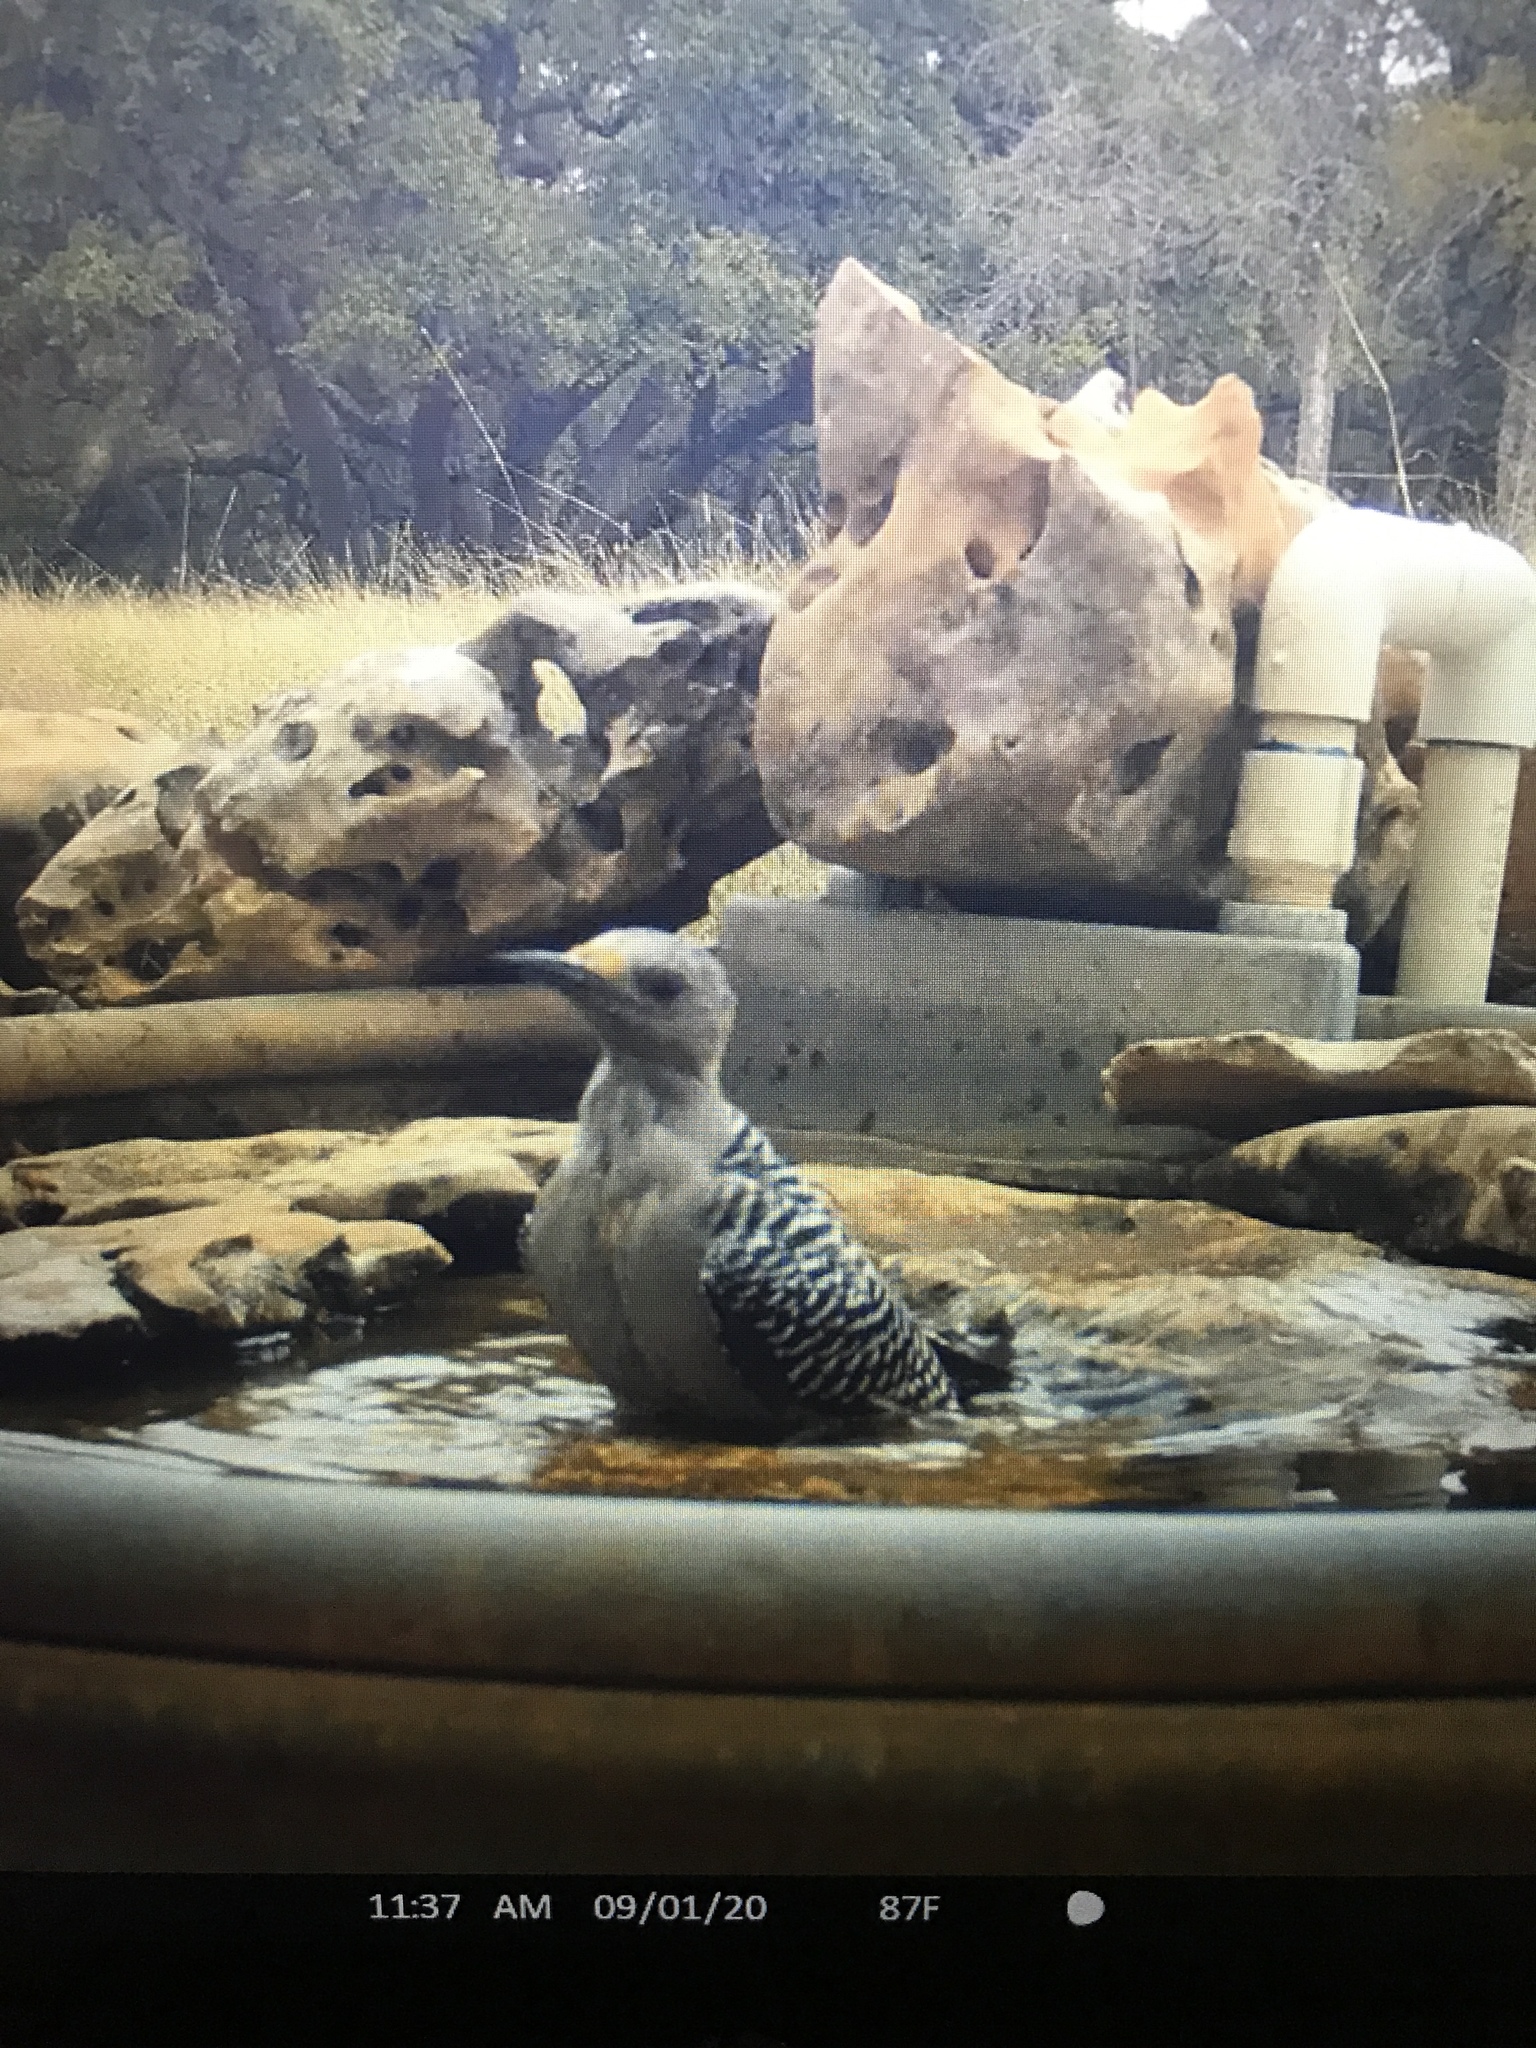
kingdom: Animalia
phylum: Chordata
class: Aves
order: Piciformes
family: Picidae
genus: Melanerpes
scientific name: Melanerpes aurifrons
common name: Golden-fronted woodpecker
